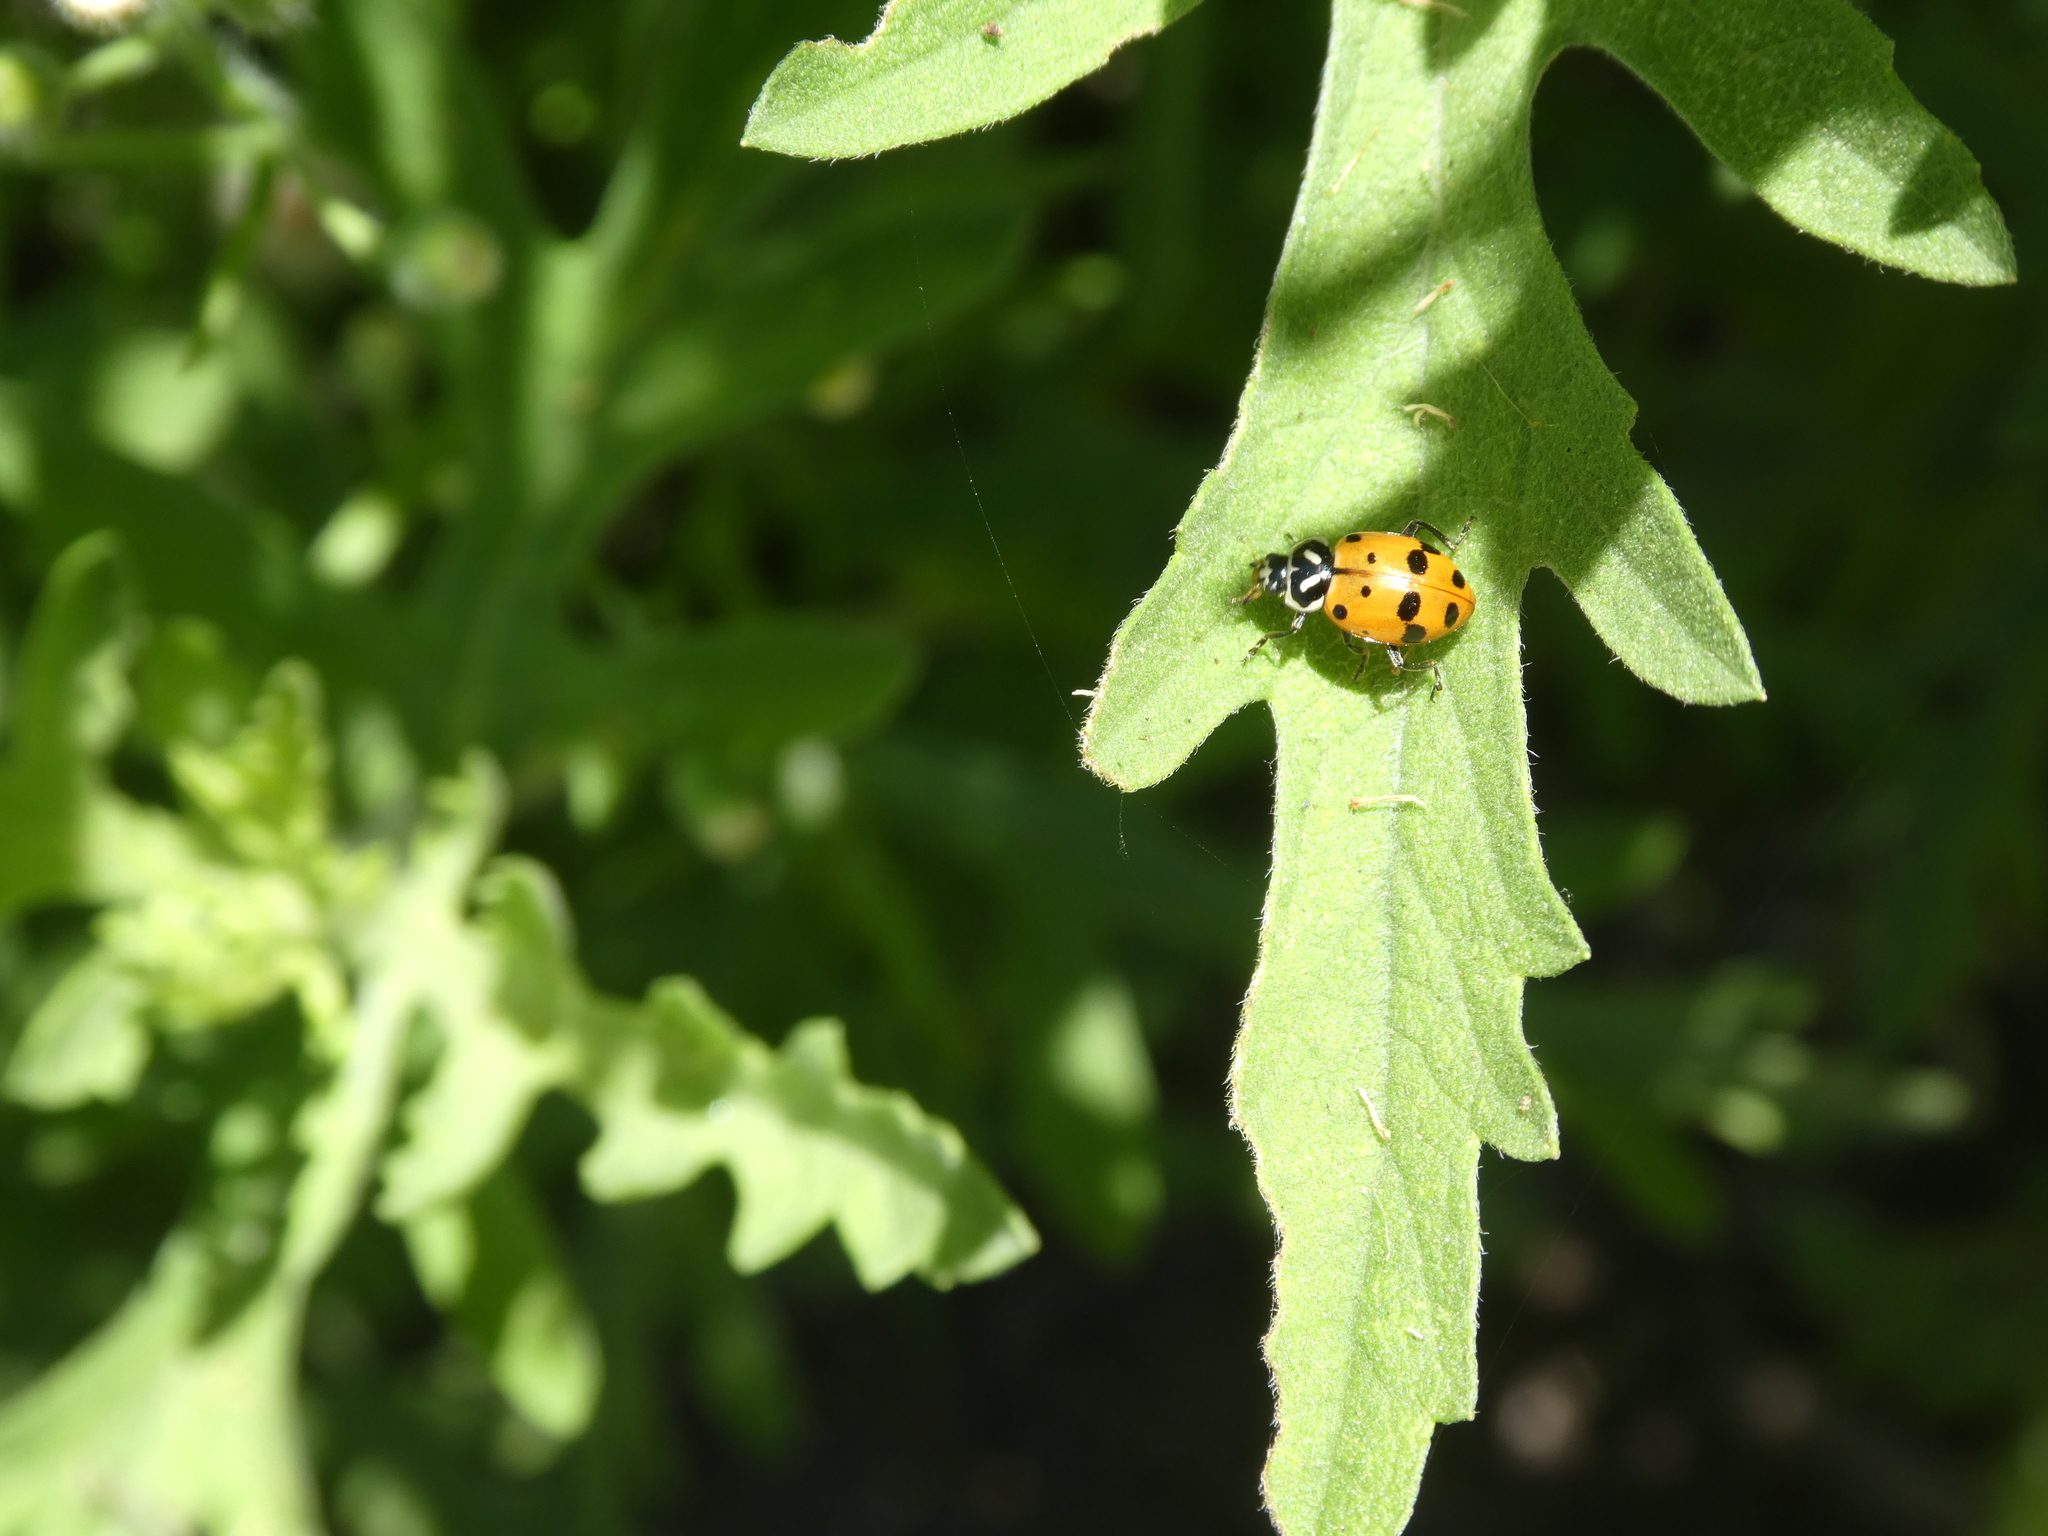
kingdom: Animalia
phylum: Arthropoda
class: Insecta
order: Coleoptera
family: Coccinellidae
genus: Hippodamia
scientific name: Hippodamia convergens
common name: Convergent lady beetle
